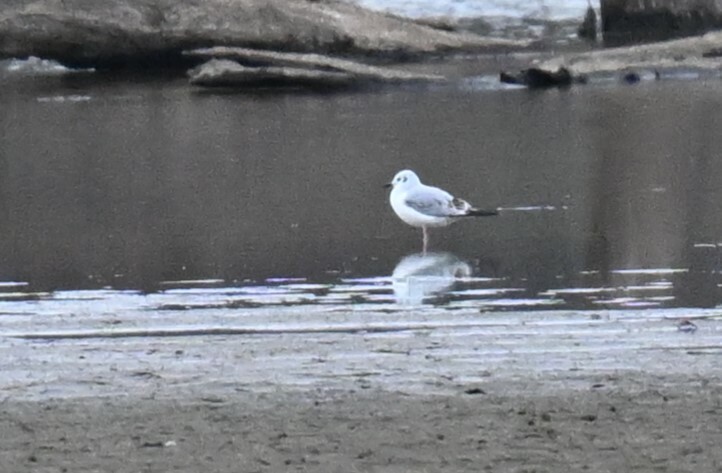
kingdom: Animalia
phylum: Chordata
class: Aves
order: Charadriiformes
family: Laridae
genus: Chroicocephalus
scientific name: Chroicocephalus philadelphia
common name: Bonaparte's gull
